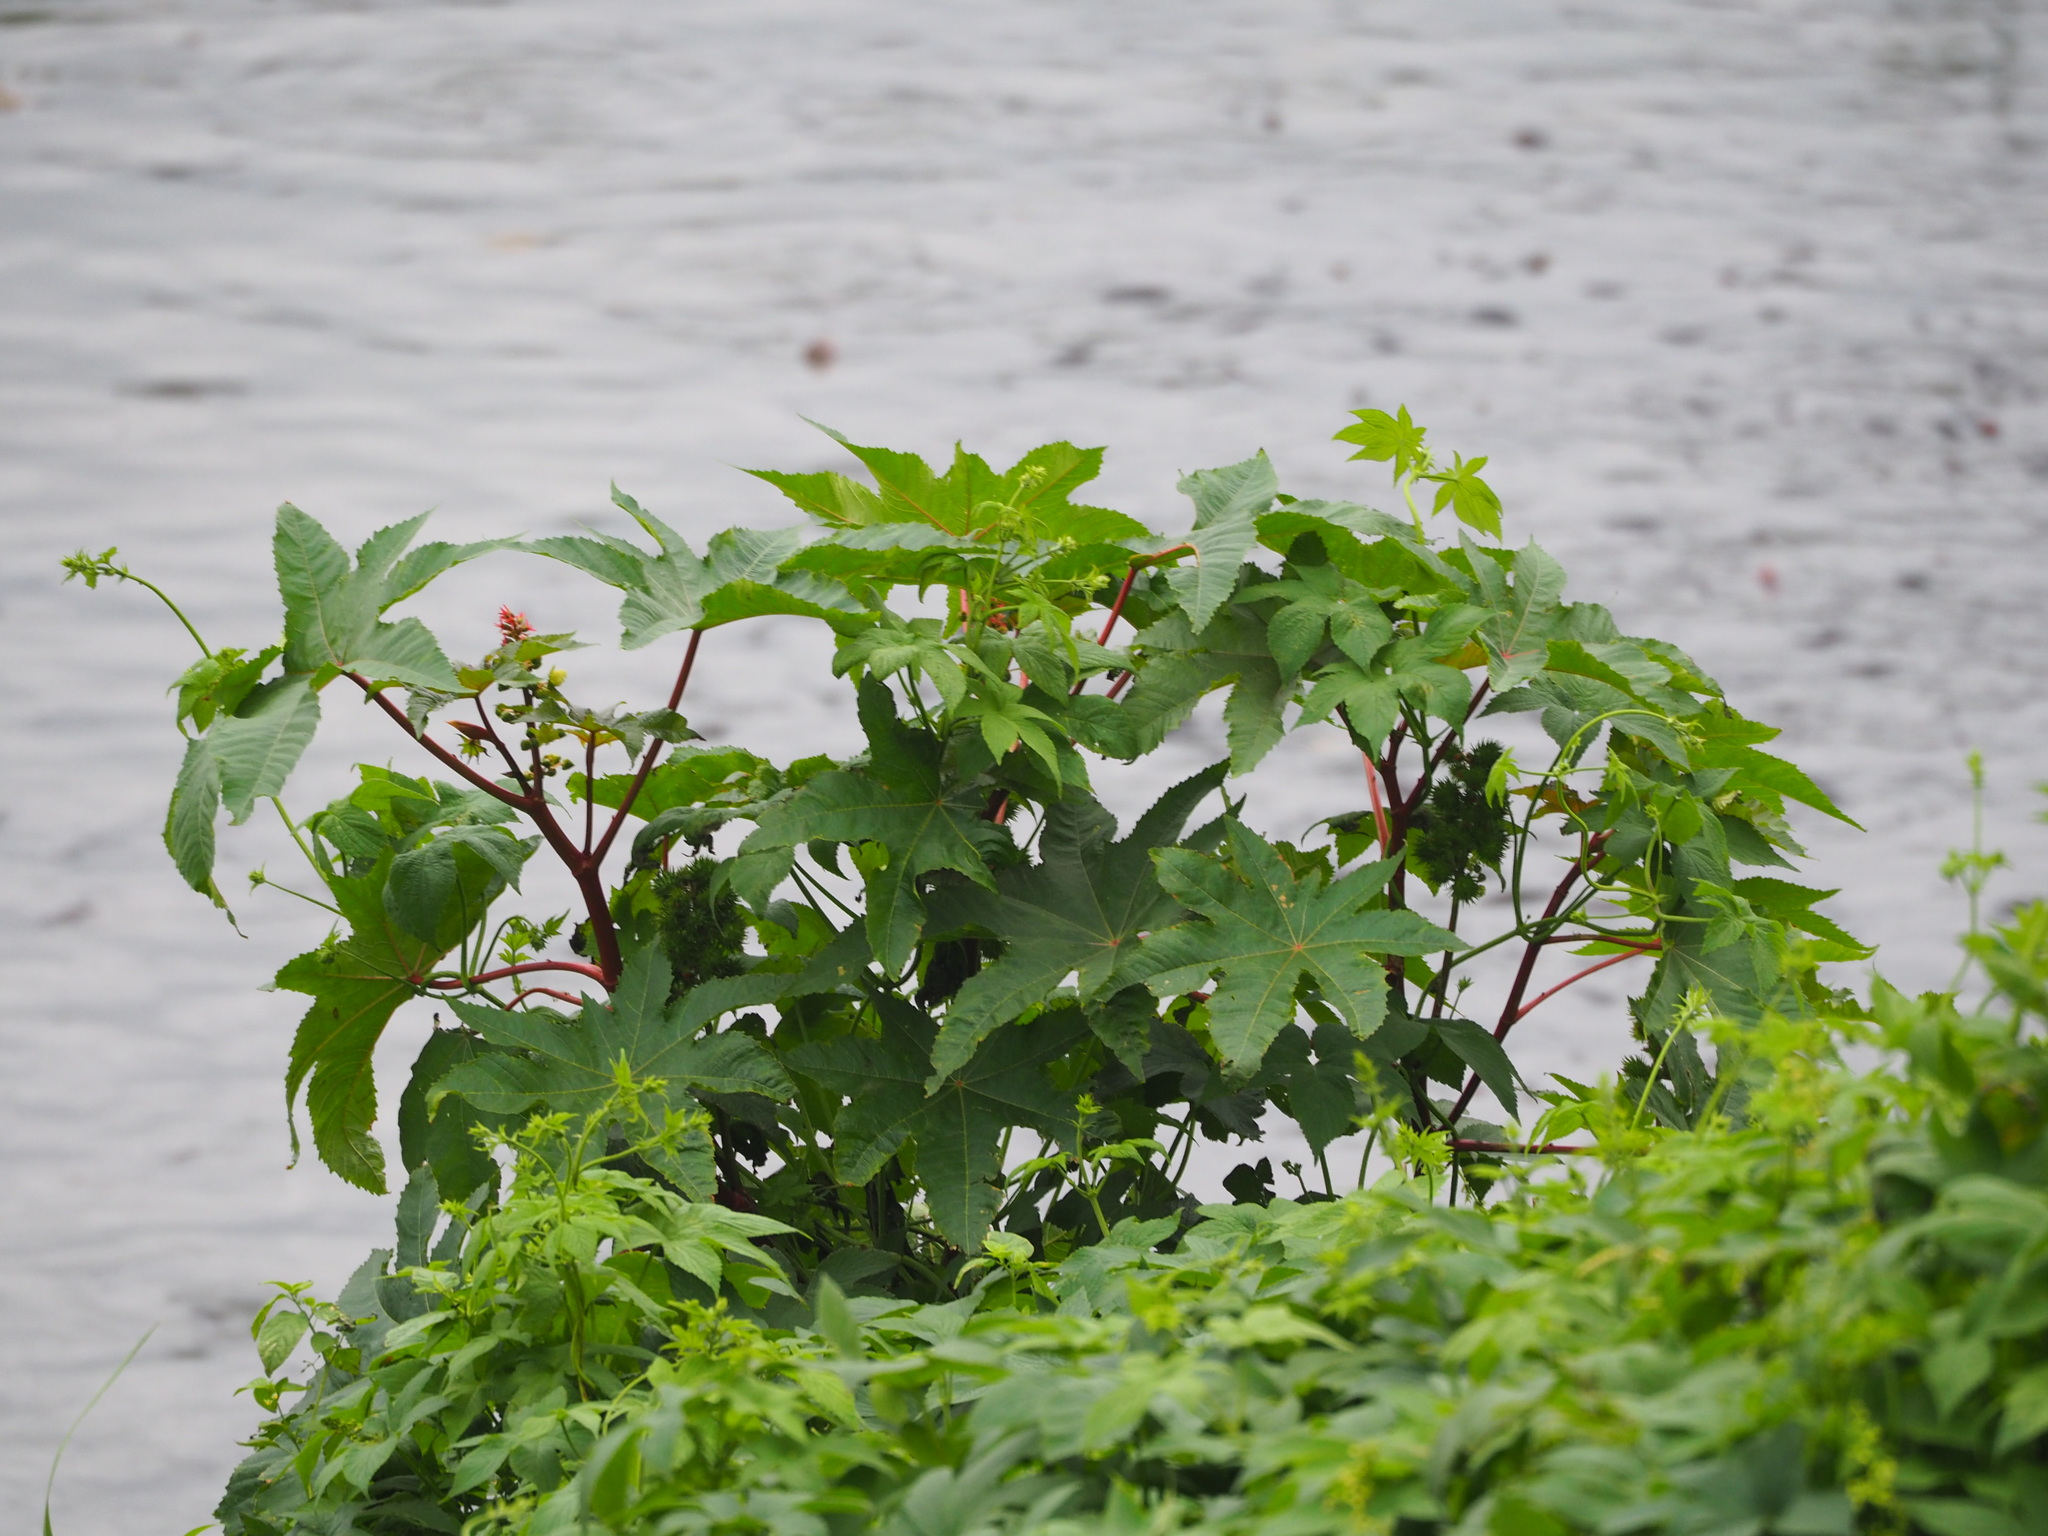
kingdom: Plantae
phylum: Tracheophyta
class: Magnoliopsida
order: Malpighiales
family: Euphorbiaceae
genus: Ricinus
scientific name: Ricinus communis
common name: Castor-oil-plant
